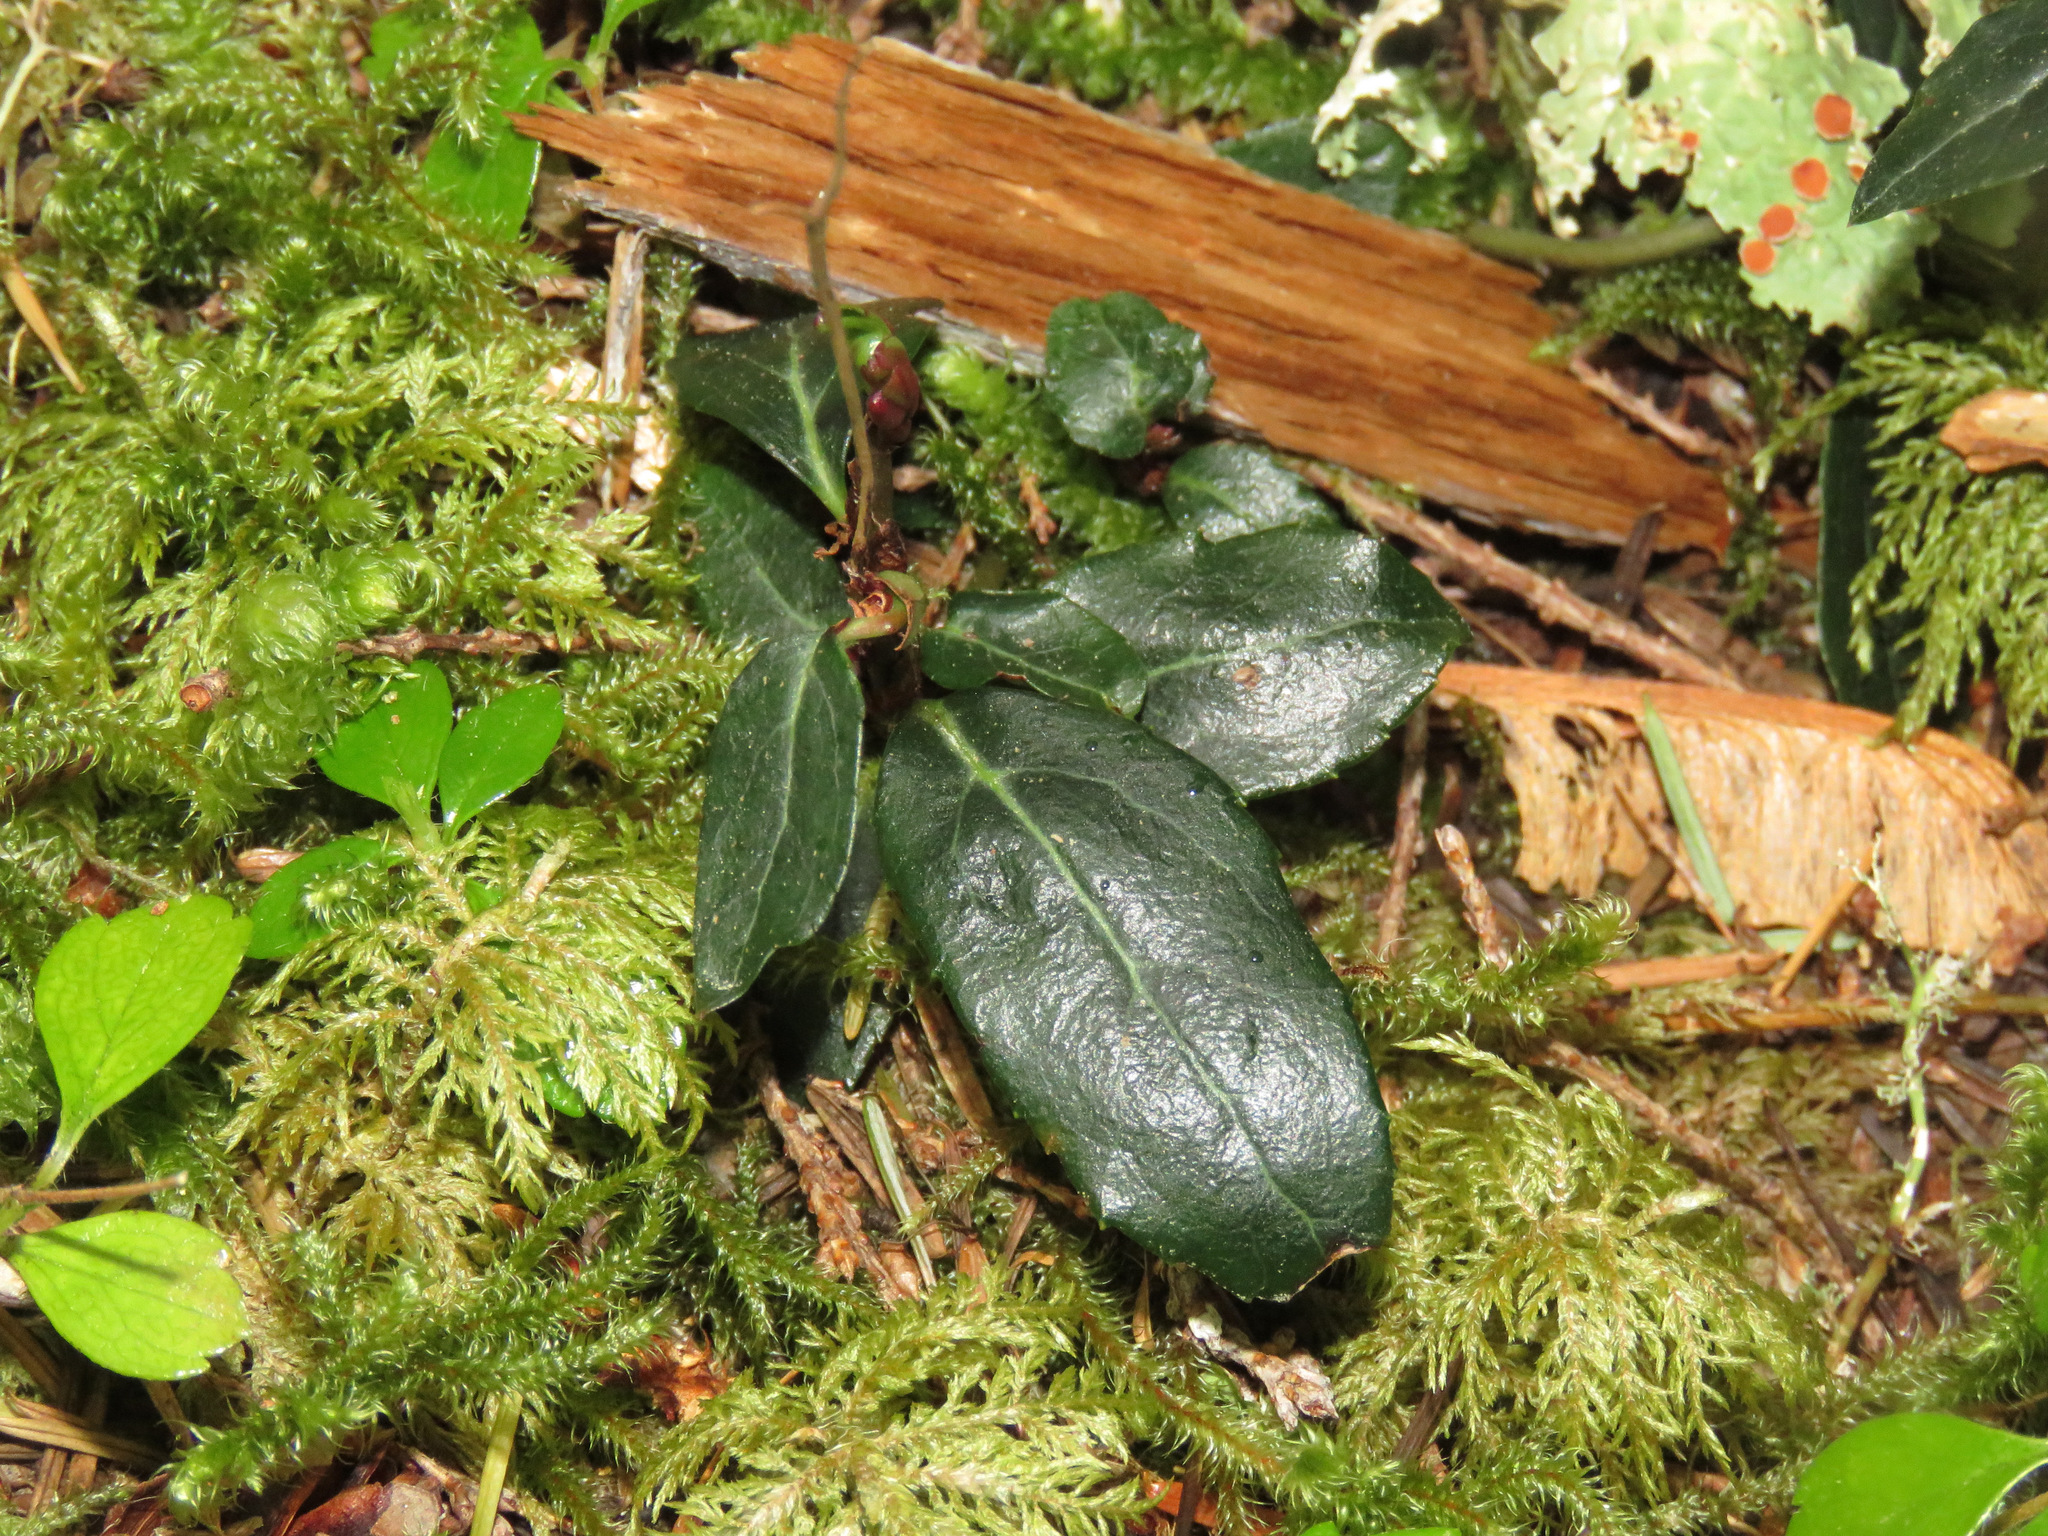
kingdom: Plantae
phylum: Tracheophyta
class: Magnoliopsida
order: Ericales
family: Ericaceae
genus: Chimaphila
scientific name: Chimaphila menziesii
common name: Menzies' pipsissewa
